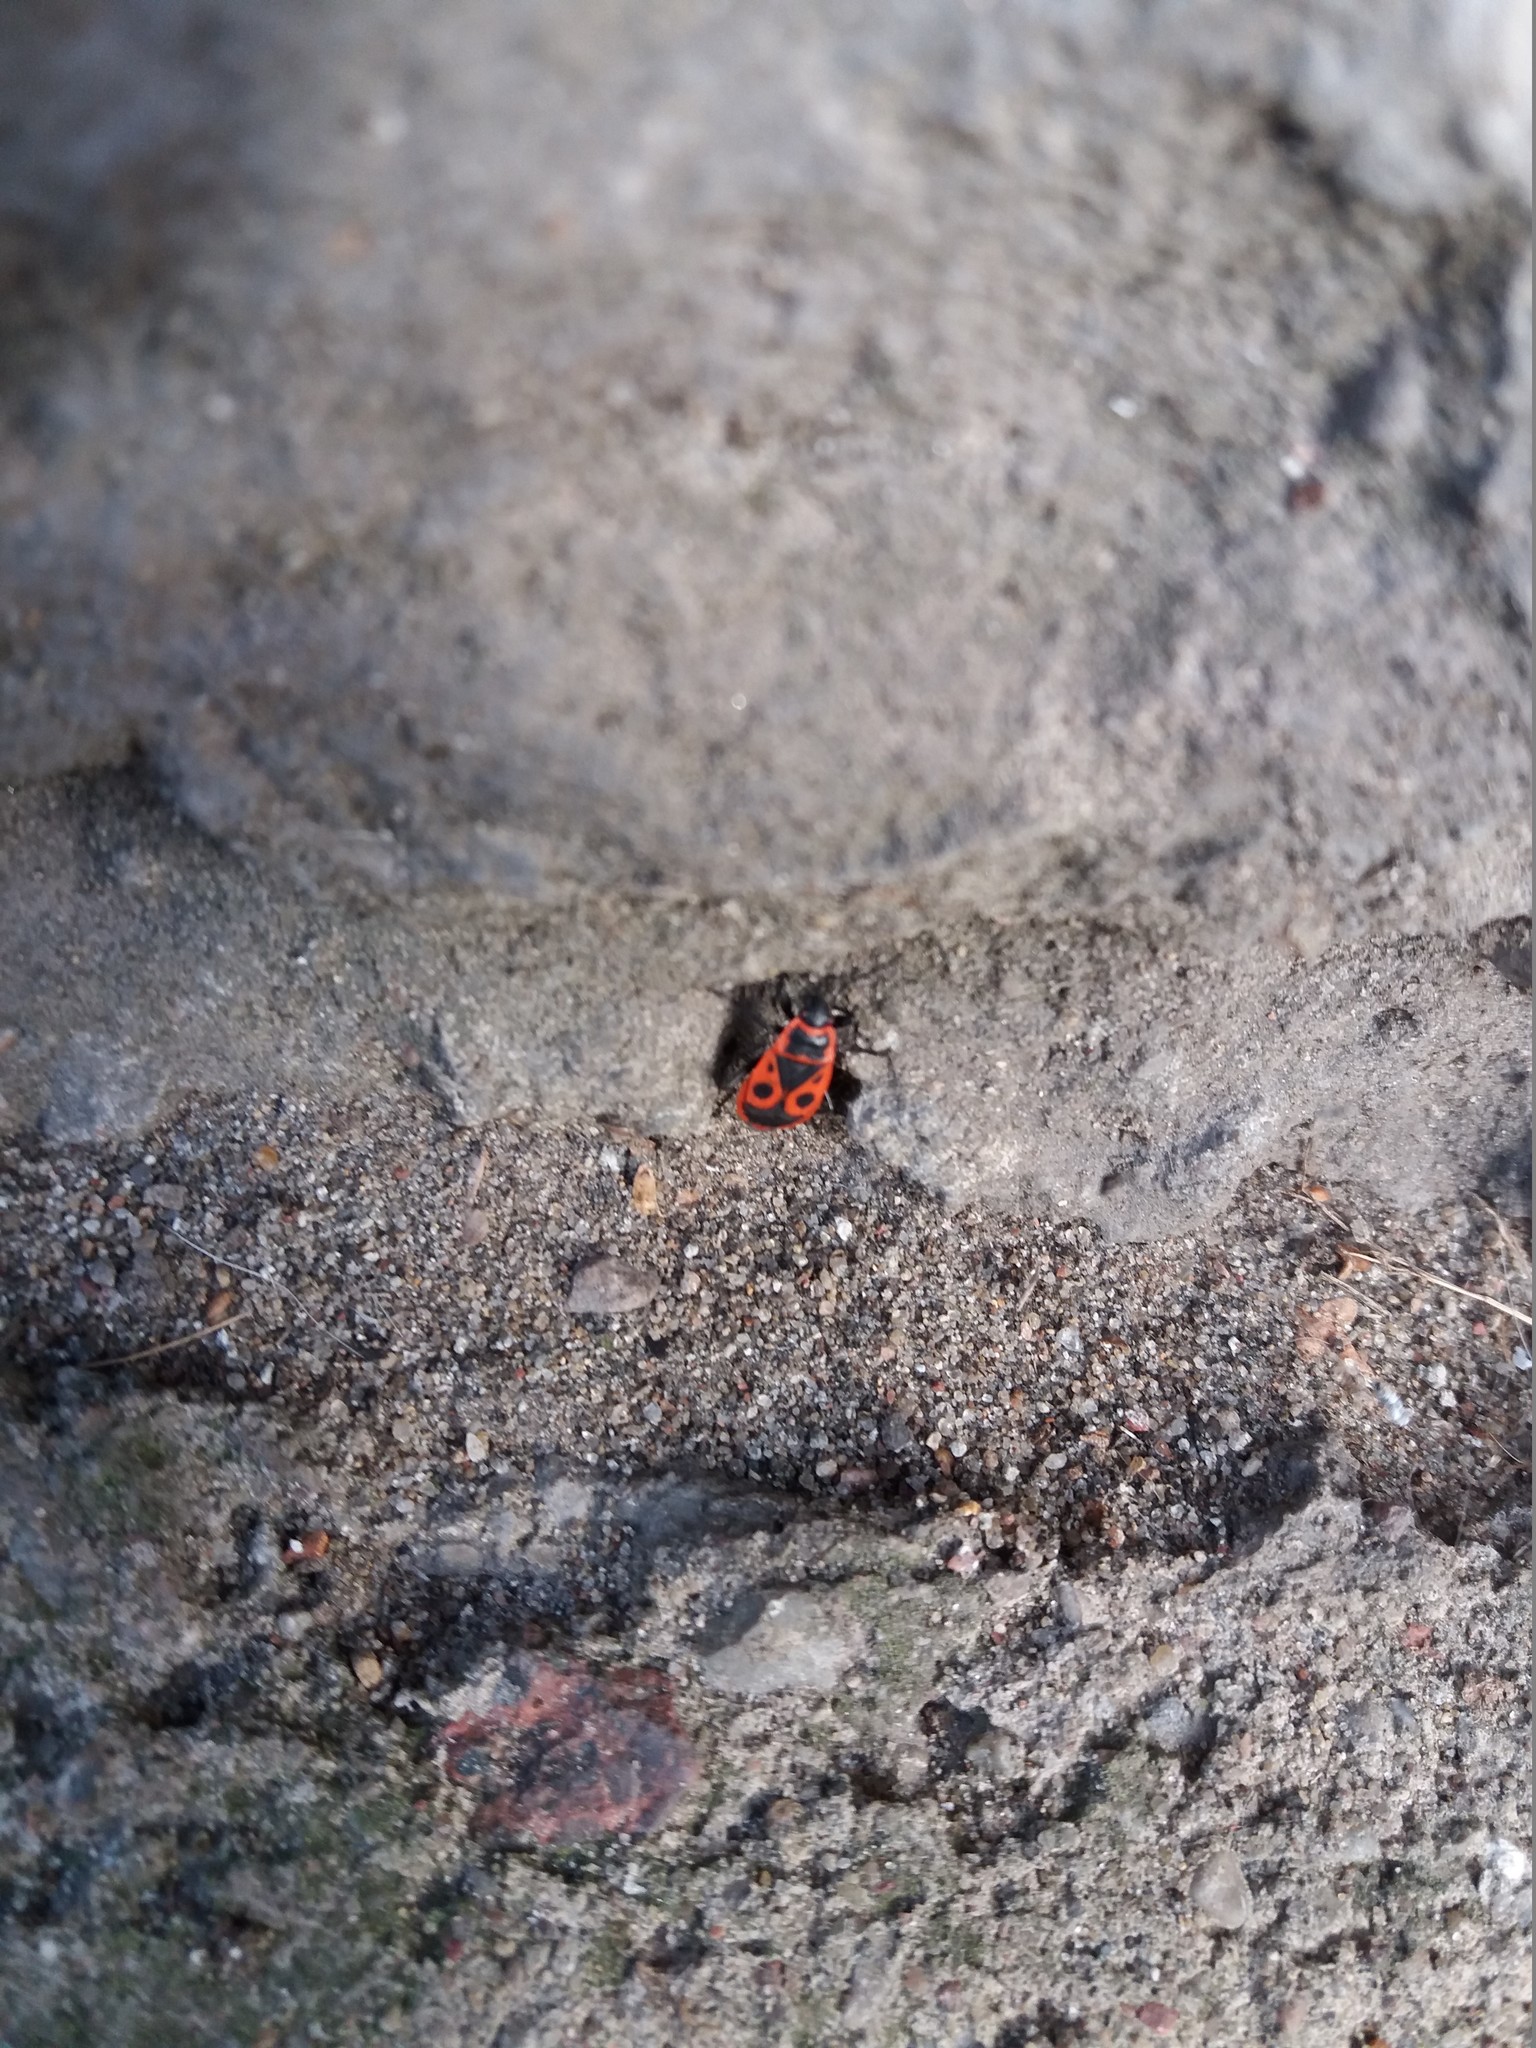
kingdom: Animalia
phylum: Arthropoda
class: Insecta
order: Hemiptera
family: Pyrrhocoridae
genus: Pyrrhocoris
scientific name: Pyrrhocoris apterus
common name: Firebug
